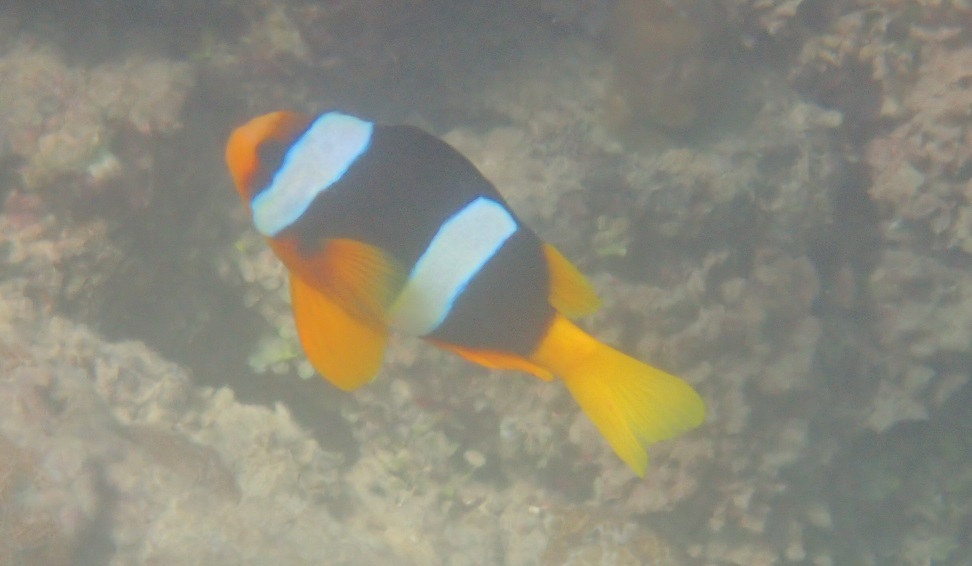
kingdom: Animalia
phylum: Chordata
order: Perciformes
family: Pomacentridae
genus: Amphiprion
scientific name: Amphiprion clarkii
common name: Clark's anemonefish
